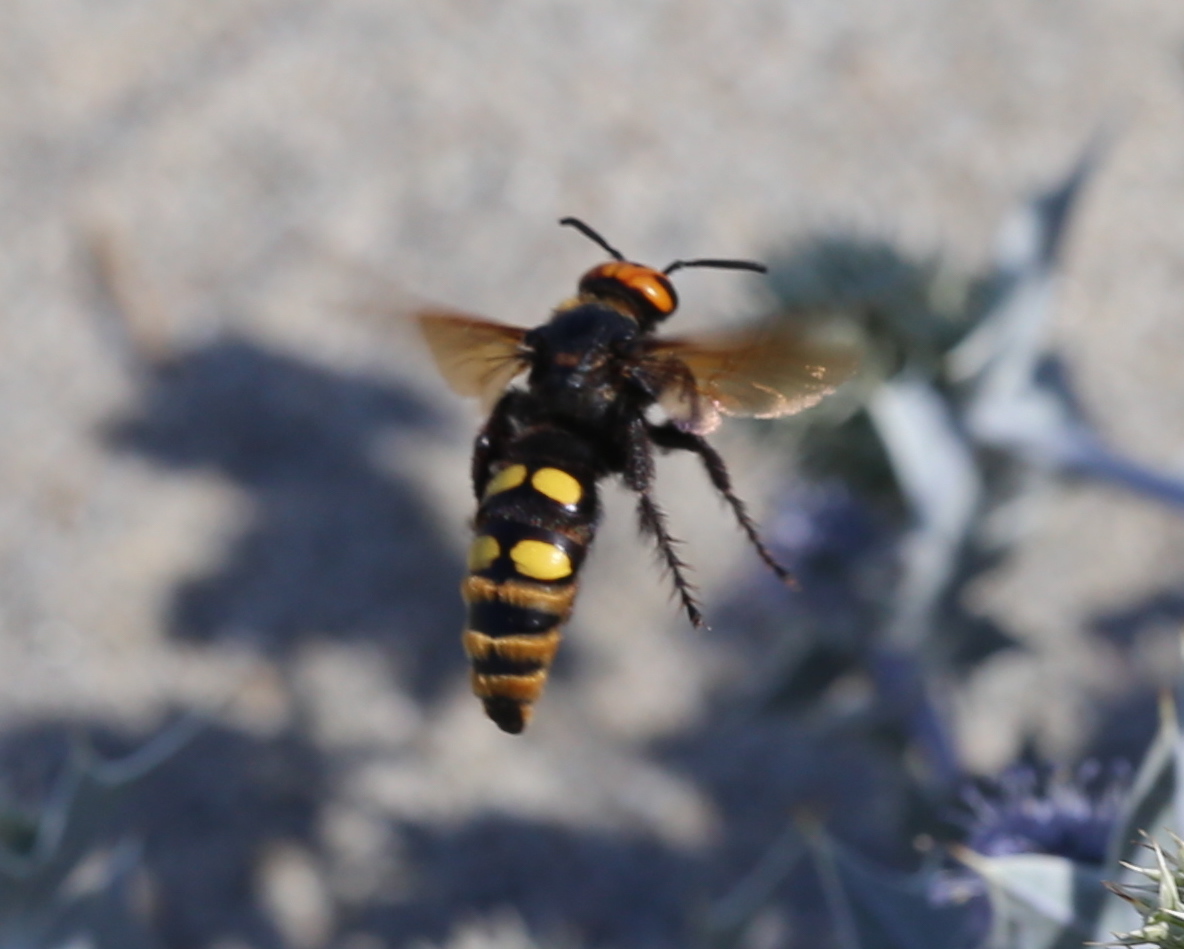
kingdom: Animalia
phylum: Arthropoda
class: Insecta
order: Hymenoptera
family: Scoliidae
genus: Megascolia
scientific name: Megascolia maculata
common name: Mammoth wasp
